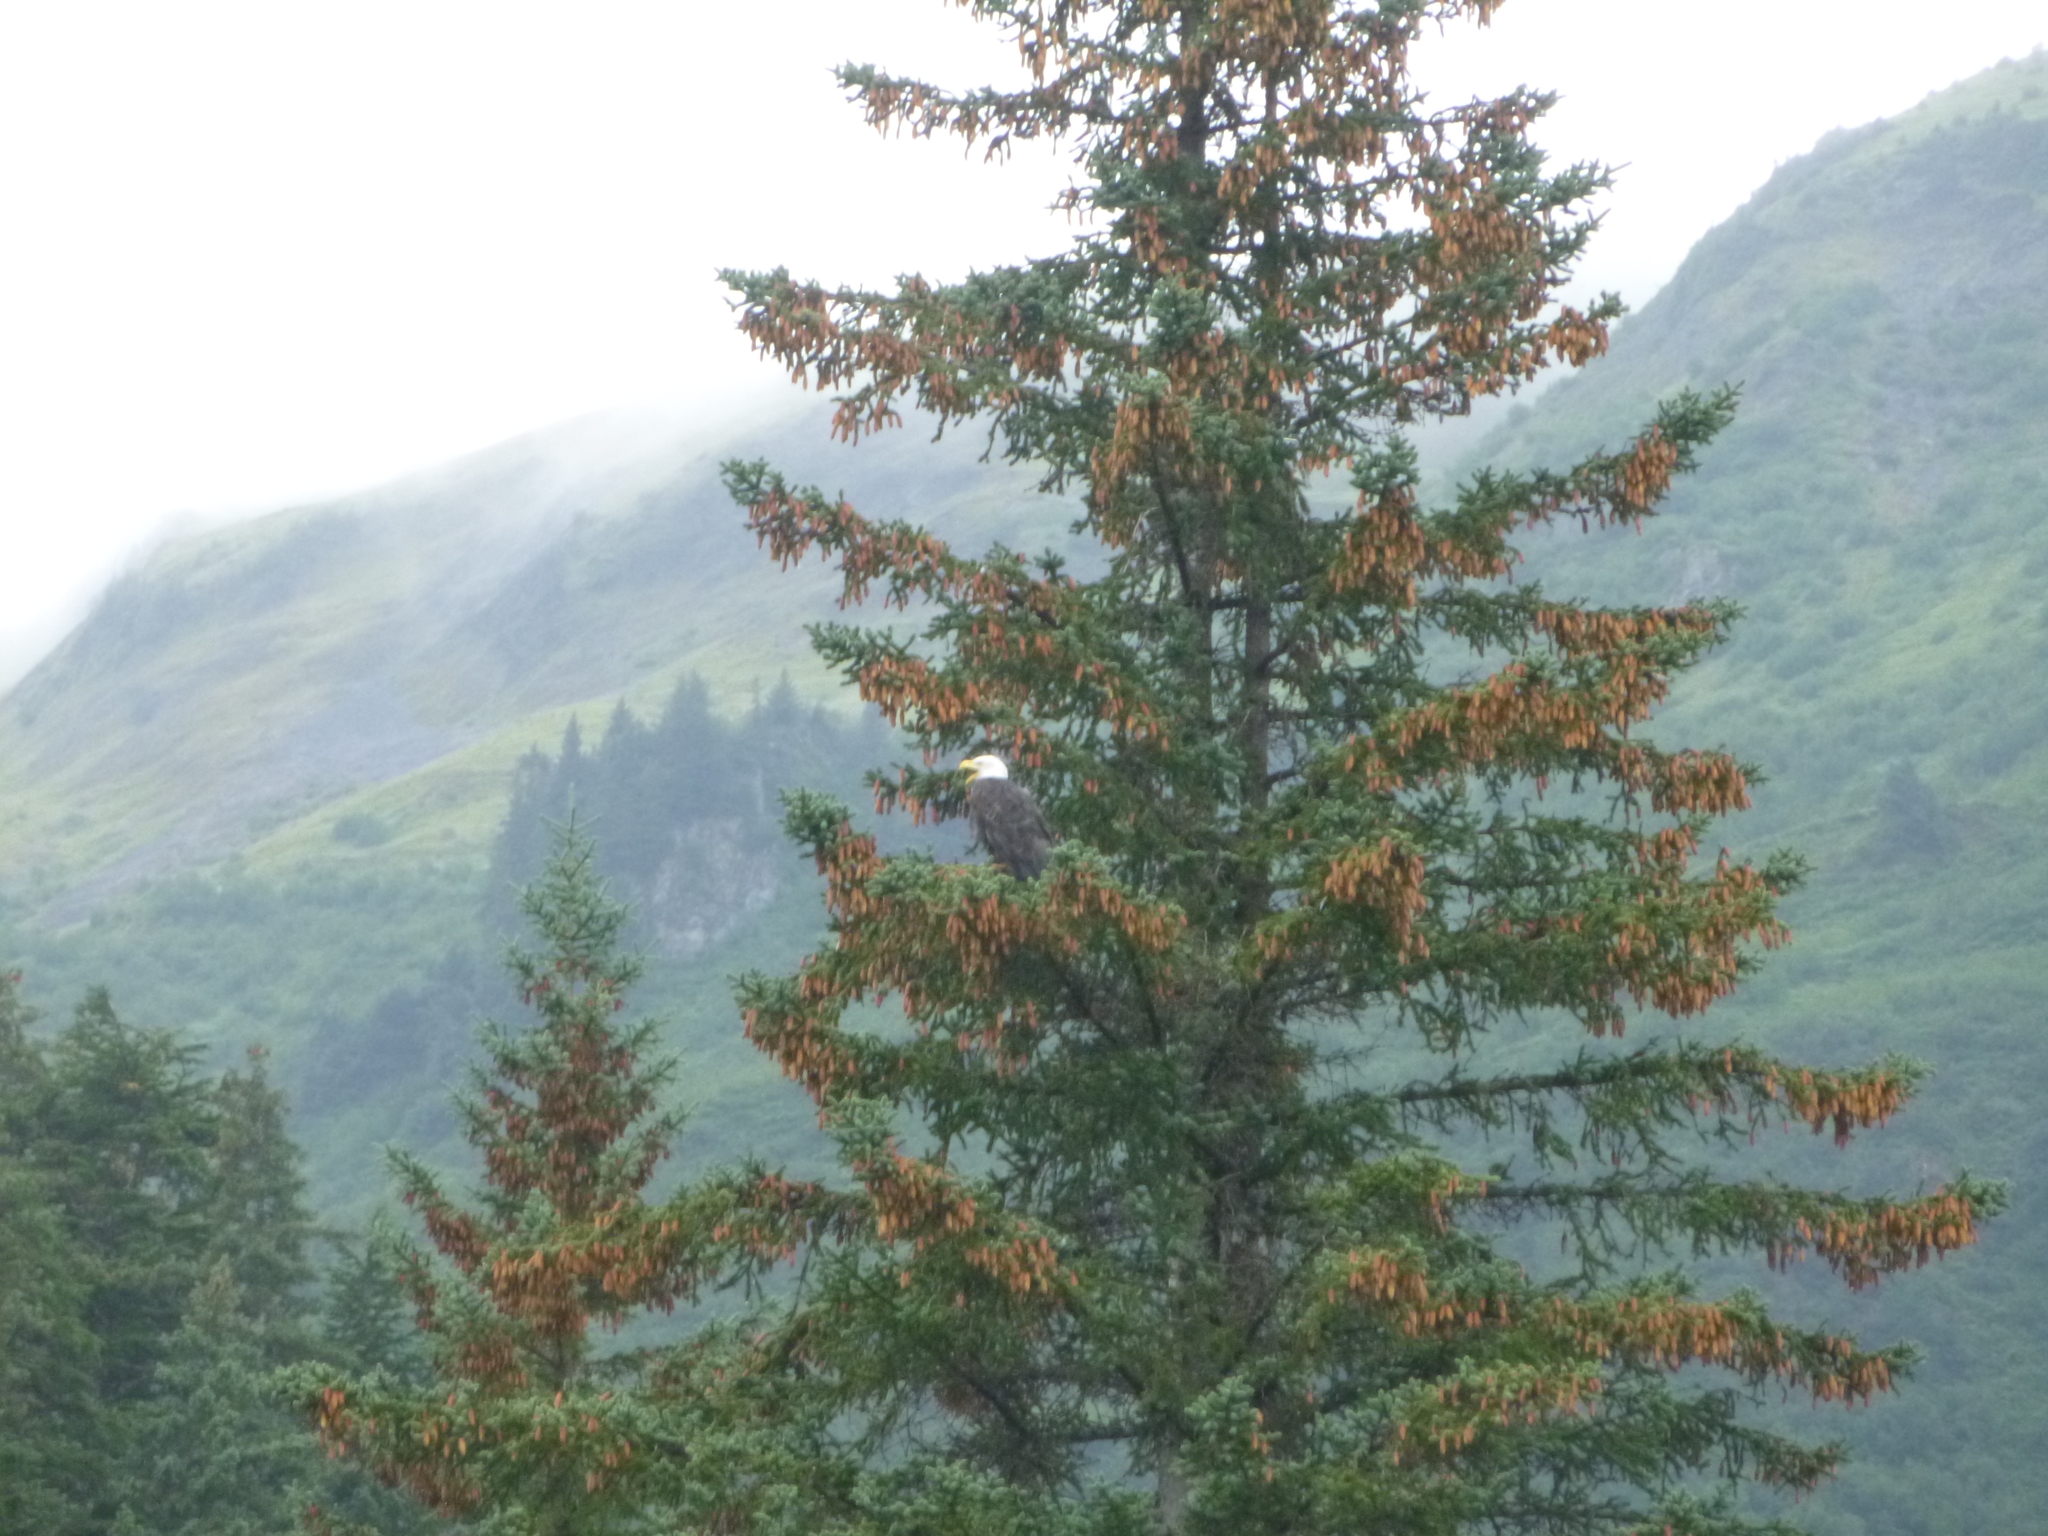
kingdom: Animalia
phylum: Chordata
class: Aves
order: Accipitriformes
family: Accipitridae
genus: Haliaeetus
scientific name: Haliaeetus leucocephalus
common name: Bald eagle
